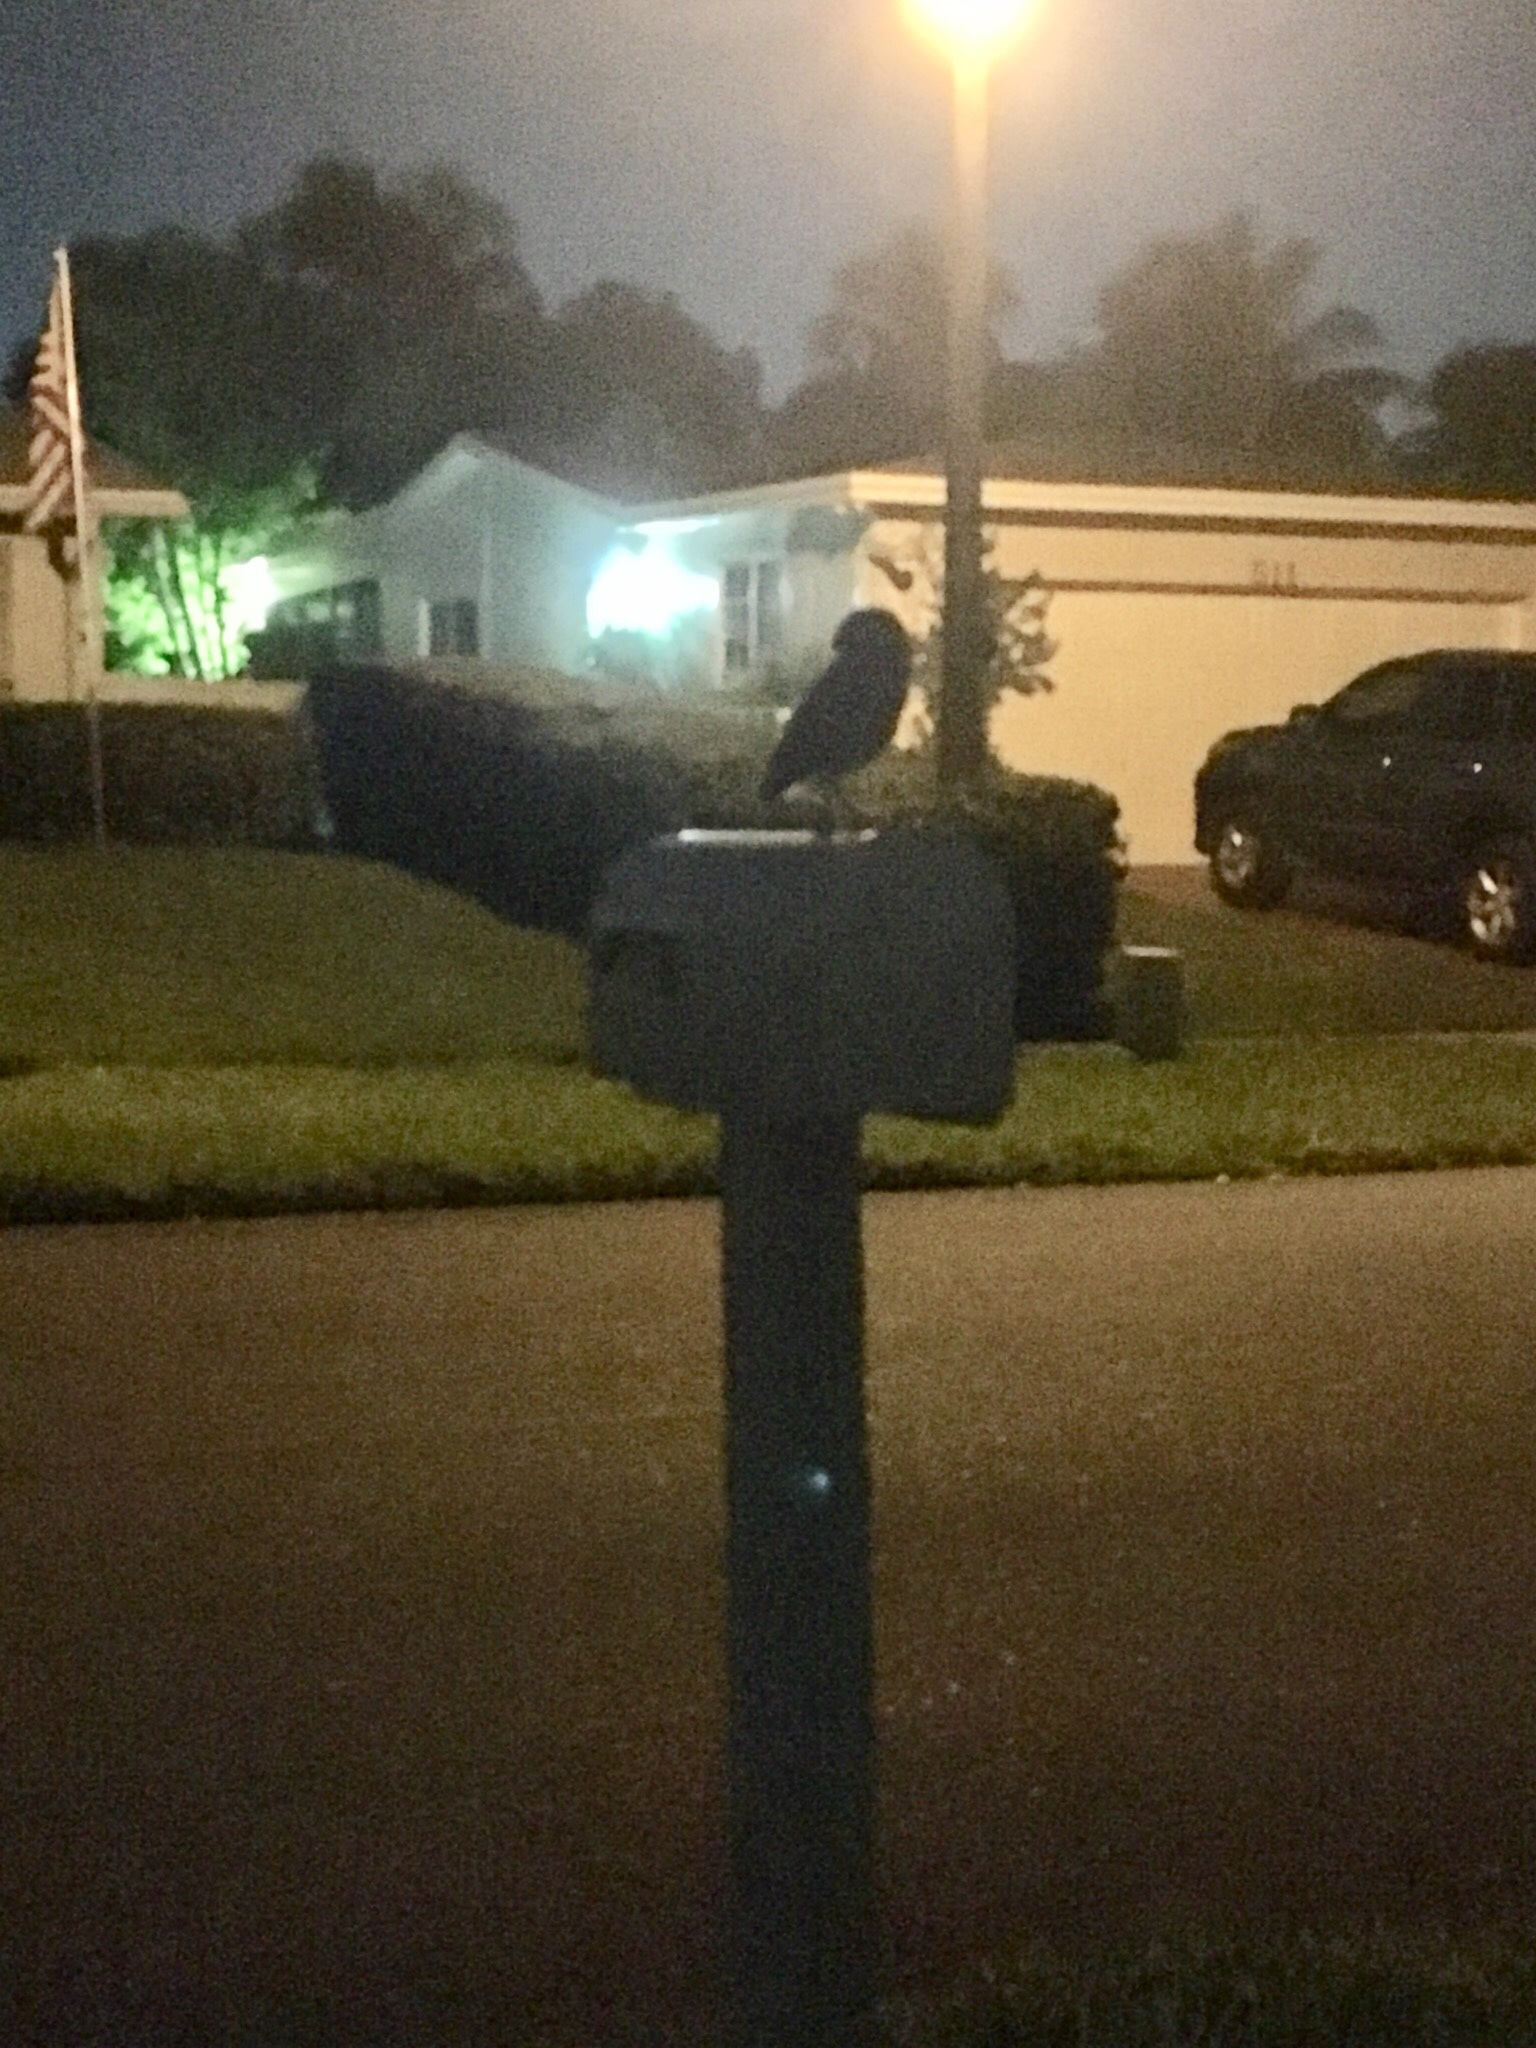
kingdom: Animalia
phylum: Chordata
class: Aves
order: Strigiformes
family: Strigidae
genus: Athene
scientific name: Athene cunicularia
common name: Burrowing owl
